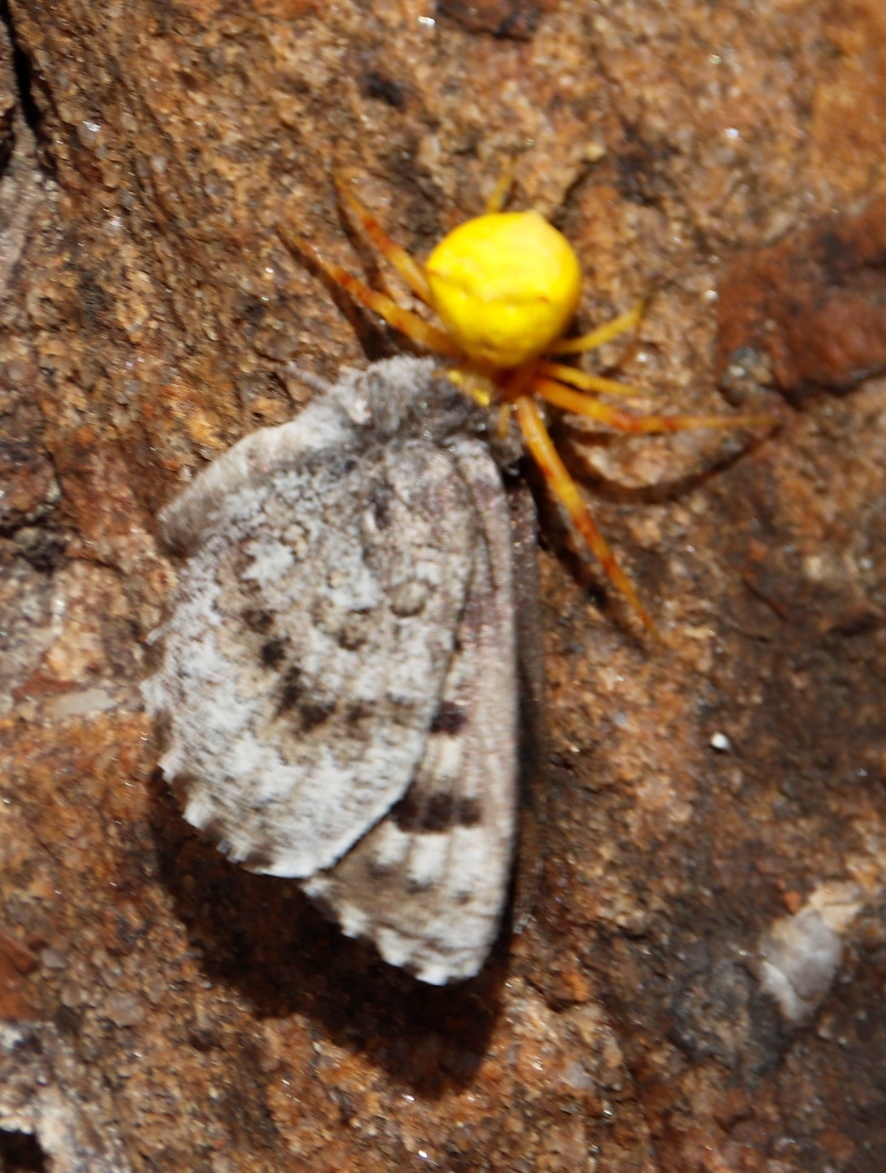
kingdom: Animalia
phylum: Arthropoda
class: Insecta
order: Lepidoptera
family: Lycaenidae
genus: Thestor
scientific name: Thestor yildizae
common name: Peninsula skolly
